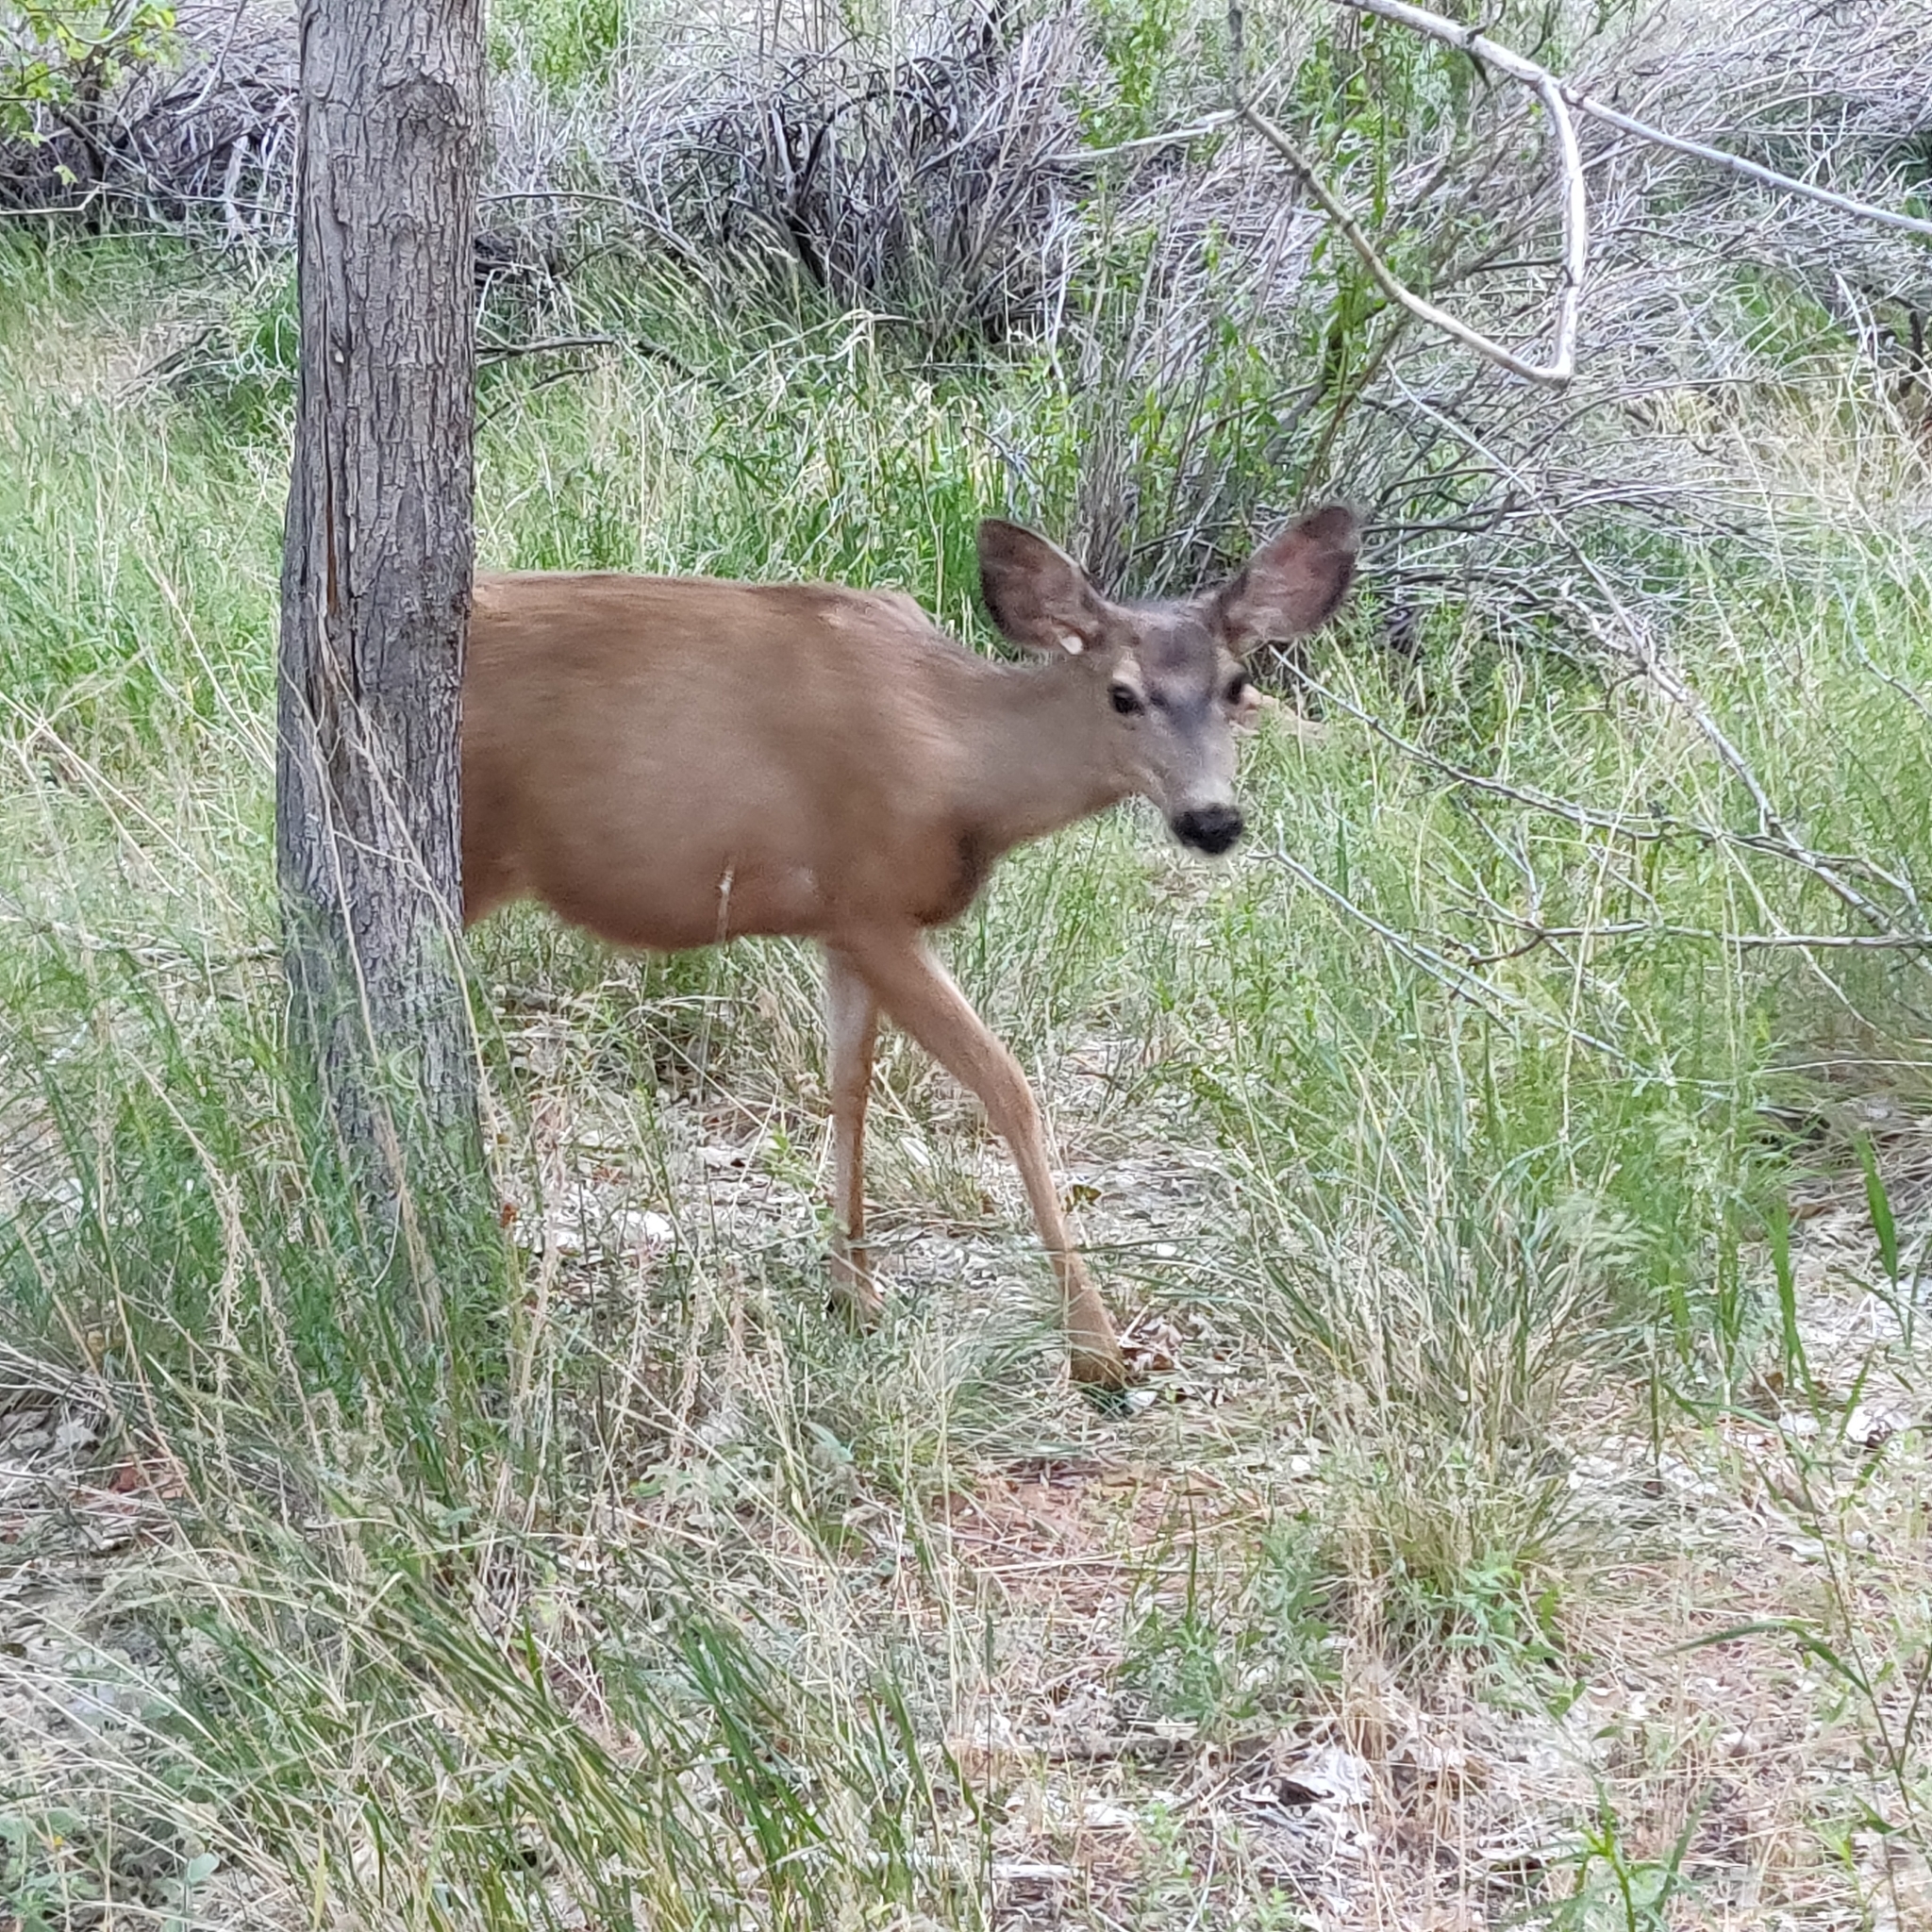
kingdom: Animalia
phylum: Chordata
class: Mammalia
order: Artiodactyla
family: Cervidae
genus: Odocoileus
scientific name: Odocoileus hemionus
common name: Mule deer
